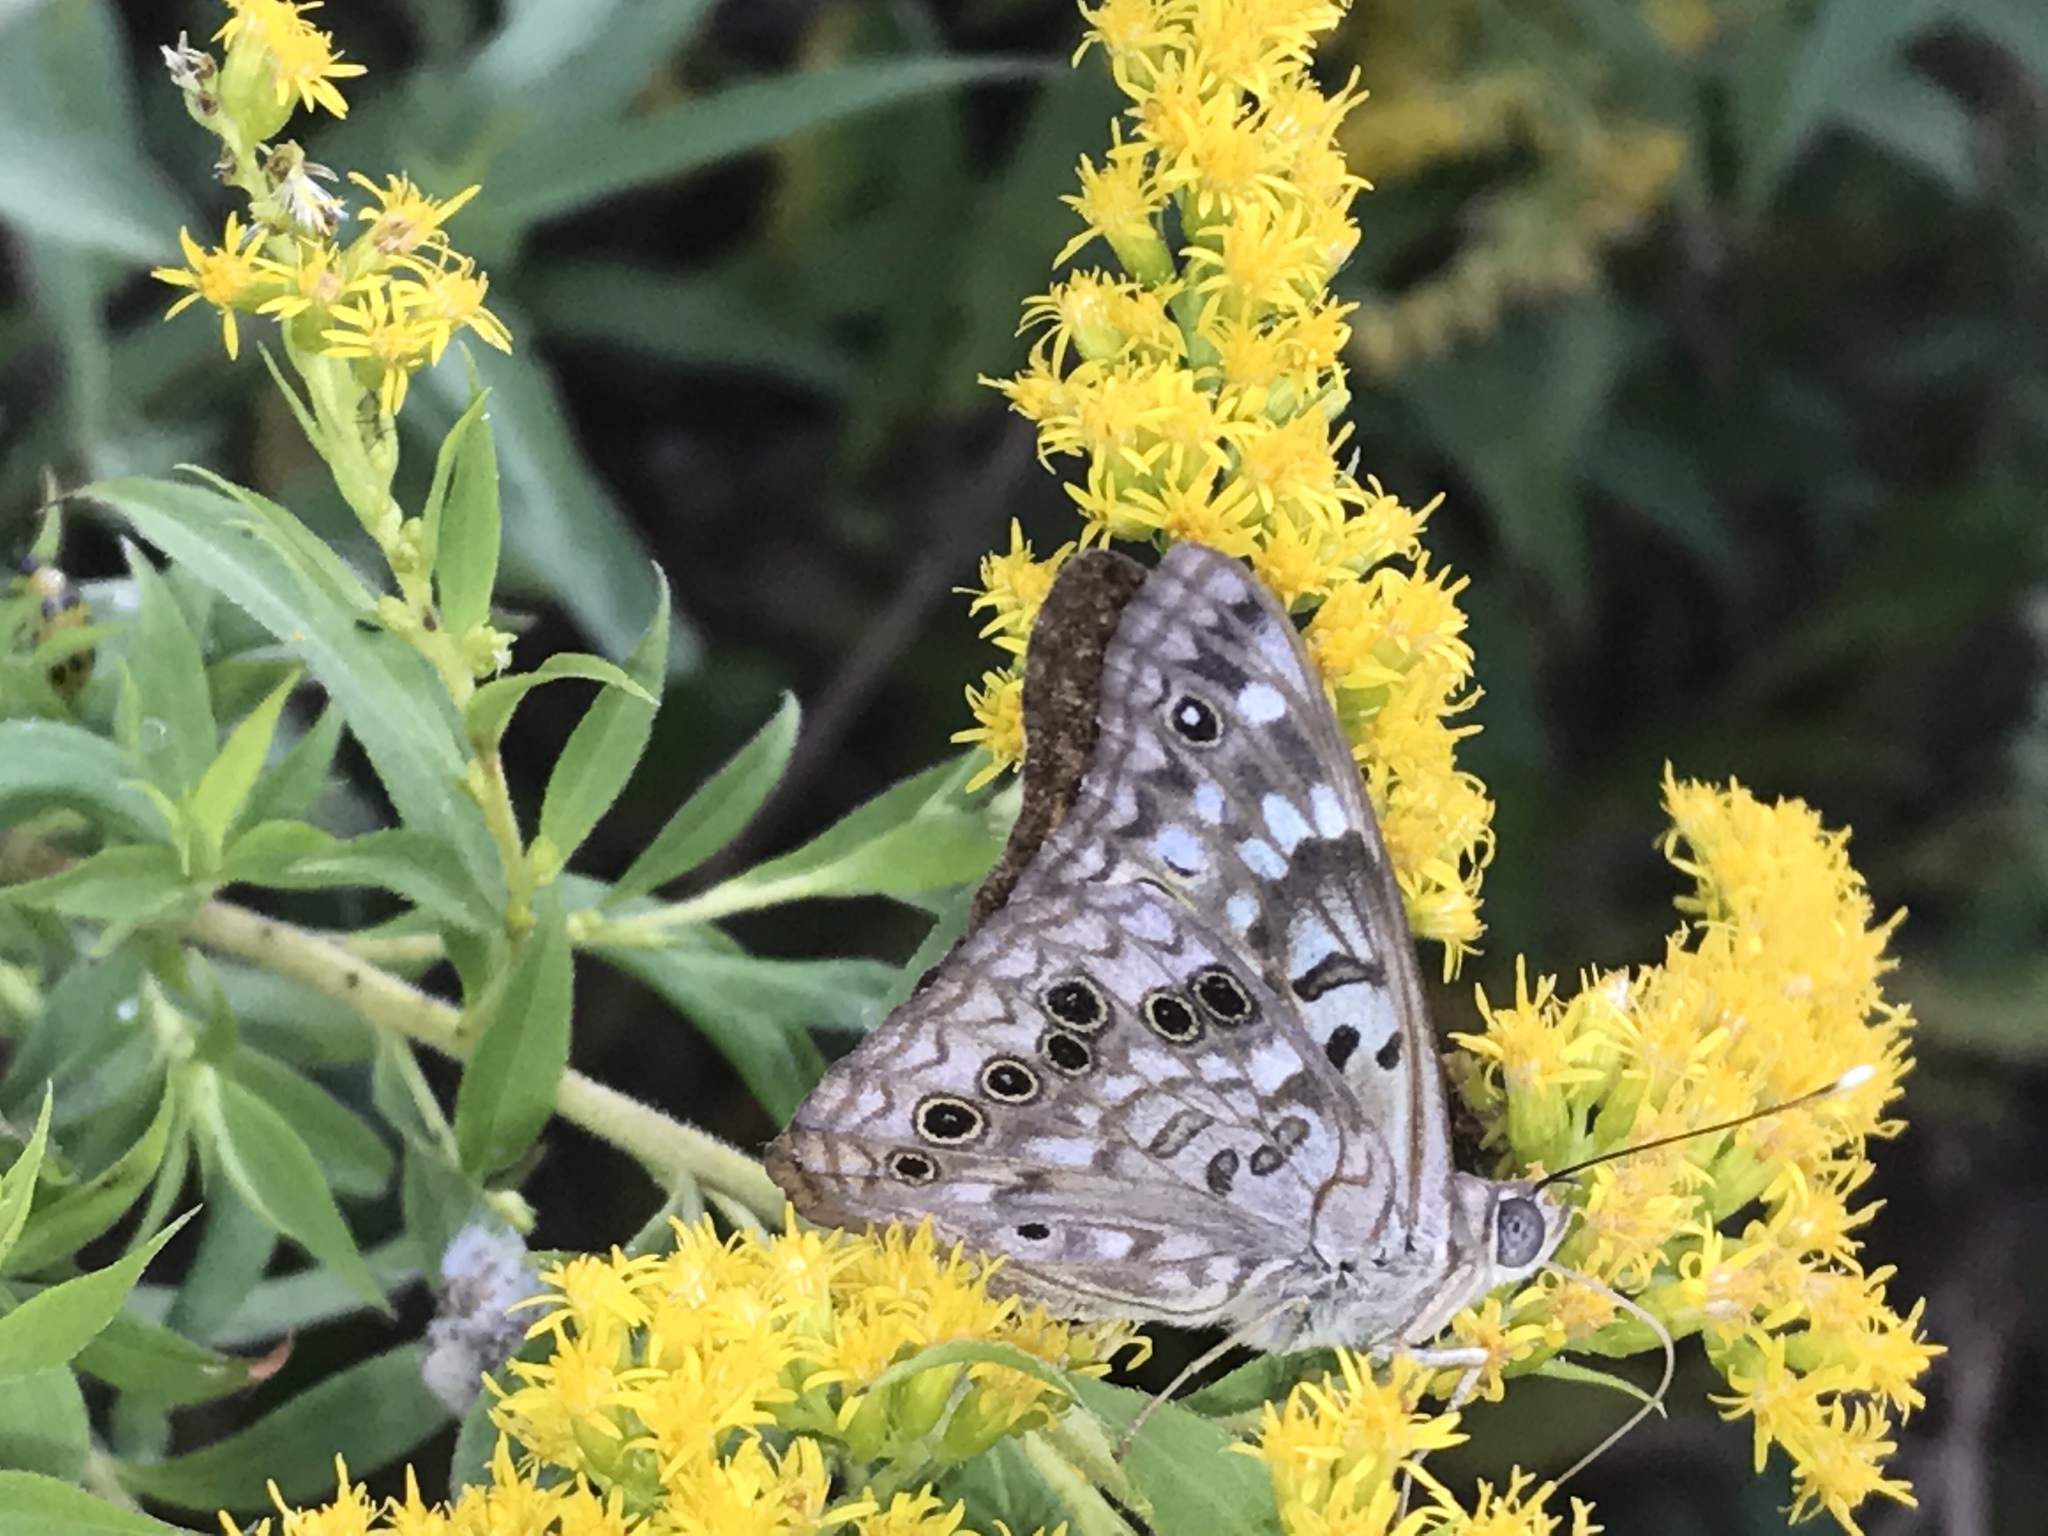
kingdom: Animalia
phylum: Arthropoda
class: Insecta
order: Lepidoptera
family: Nymphalidae
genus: Asterocampa
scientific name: Asterocampa celtis
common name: Hackberry emperor
